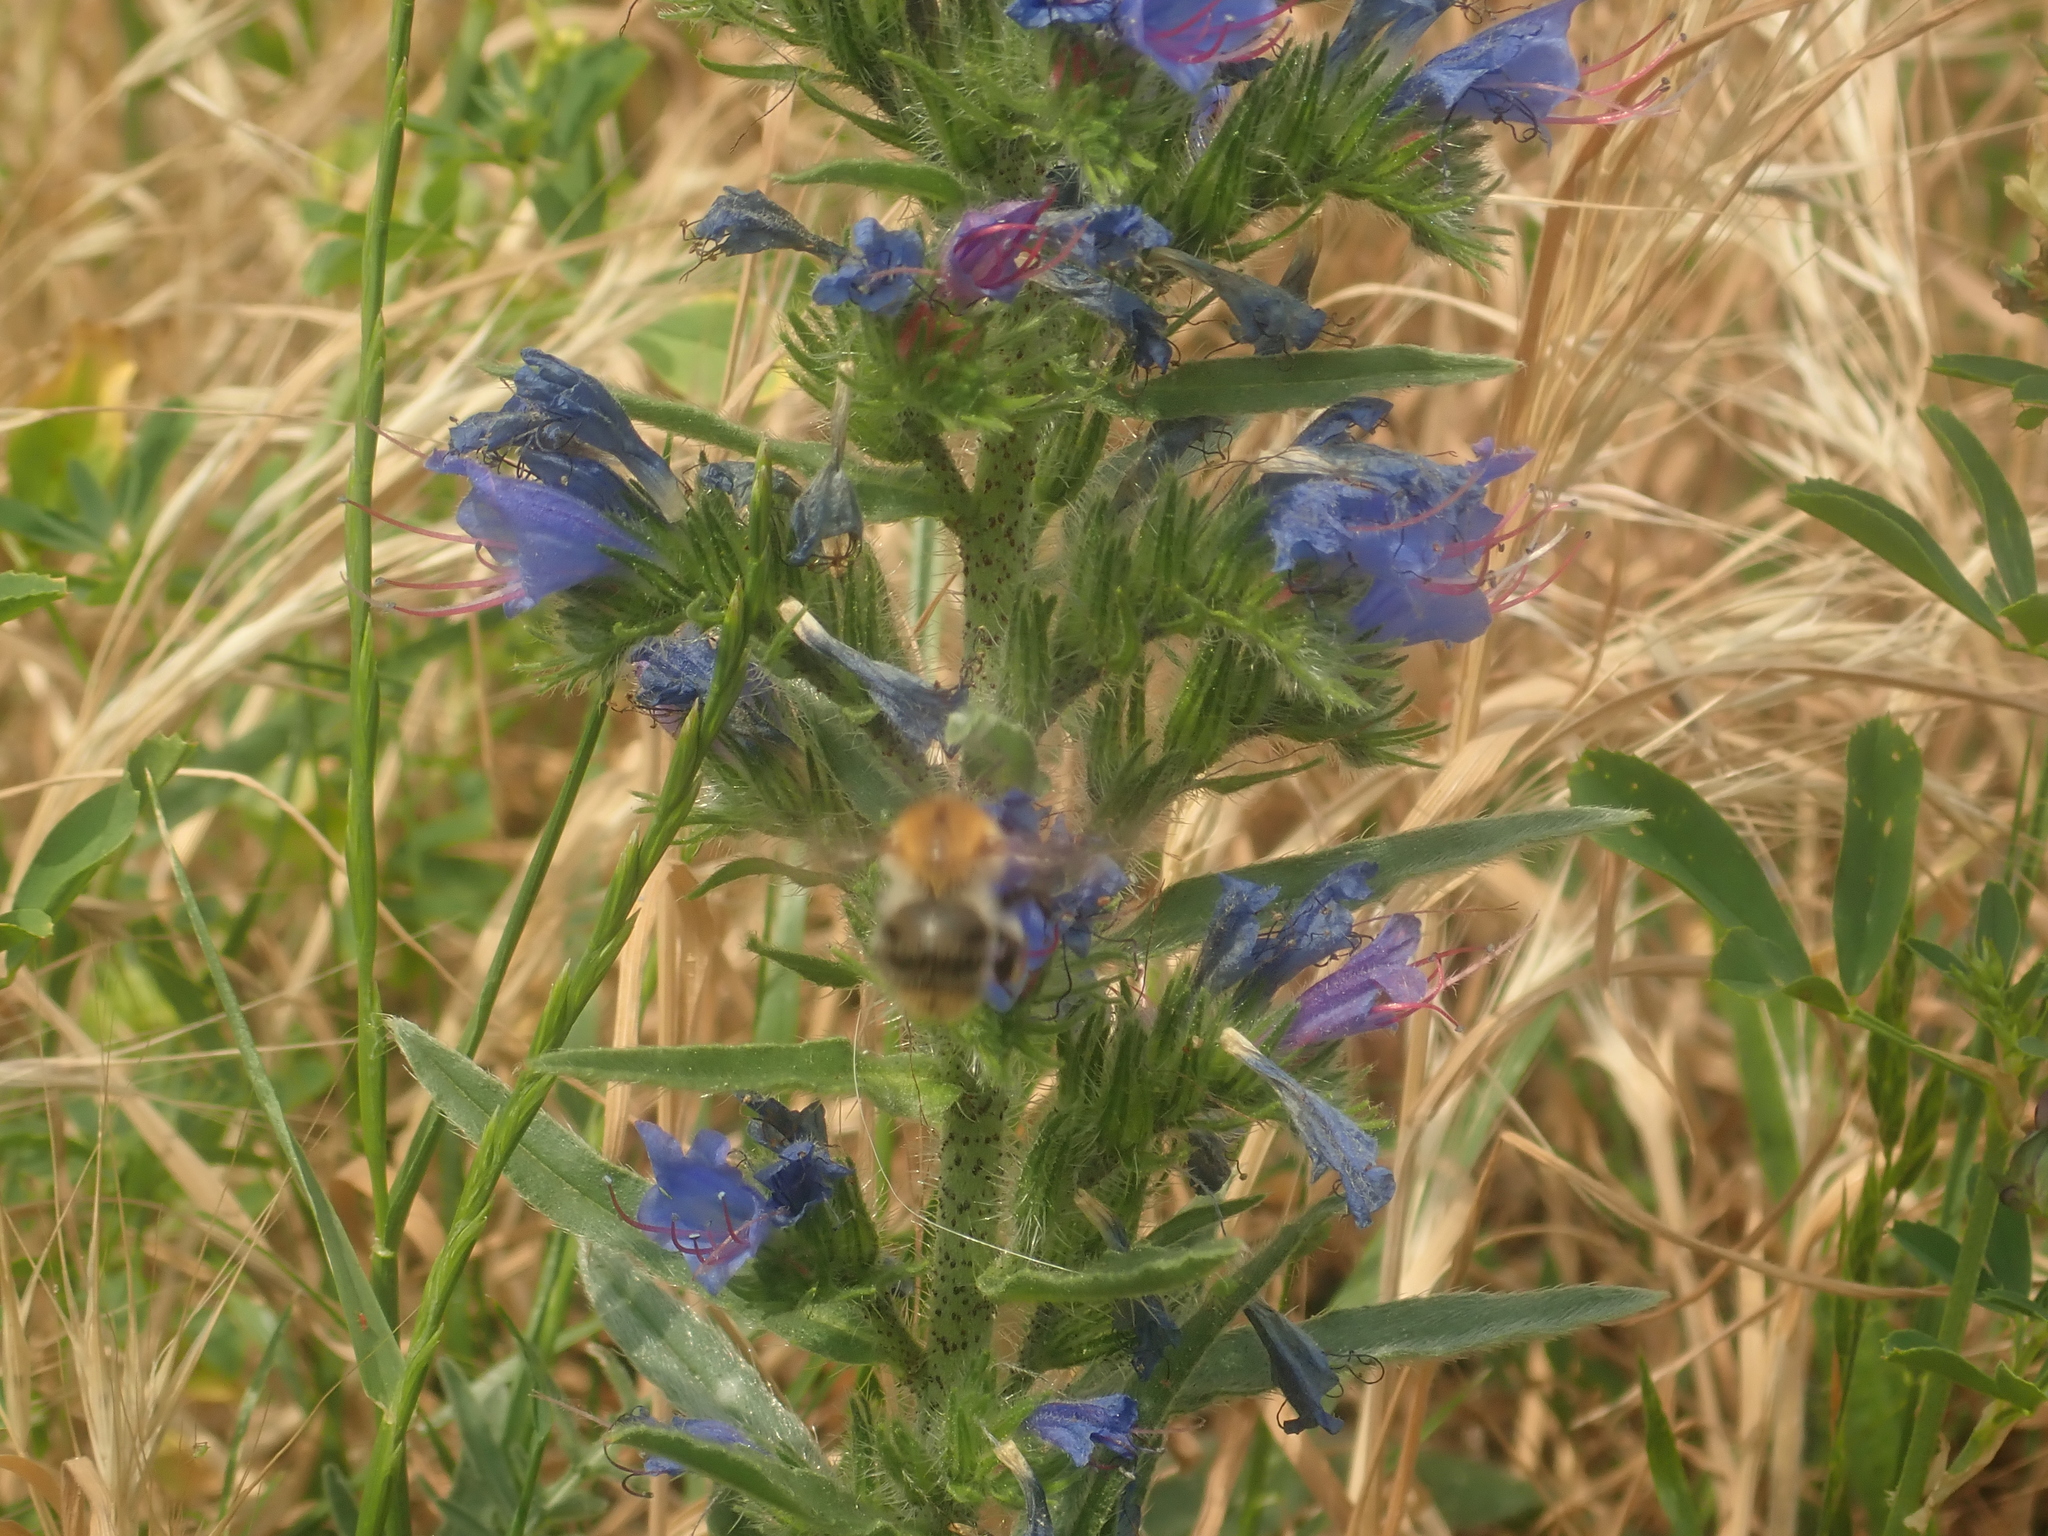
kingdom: Plantae
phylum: Tracheophyta
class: Magnoliopsida
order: Boraginales
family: Boraginaceae
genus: Echium
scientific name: Echium vulgare
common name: Common viper's bugloss
